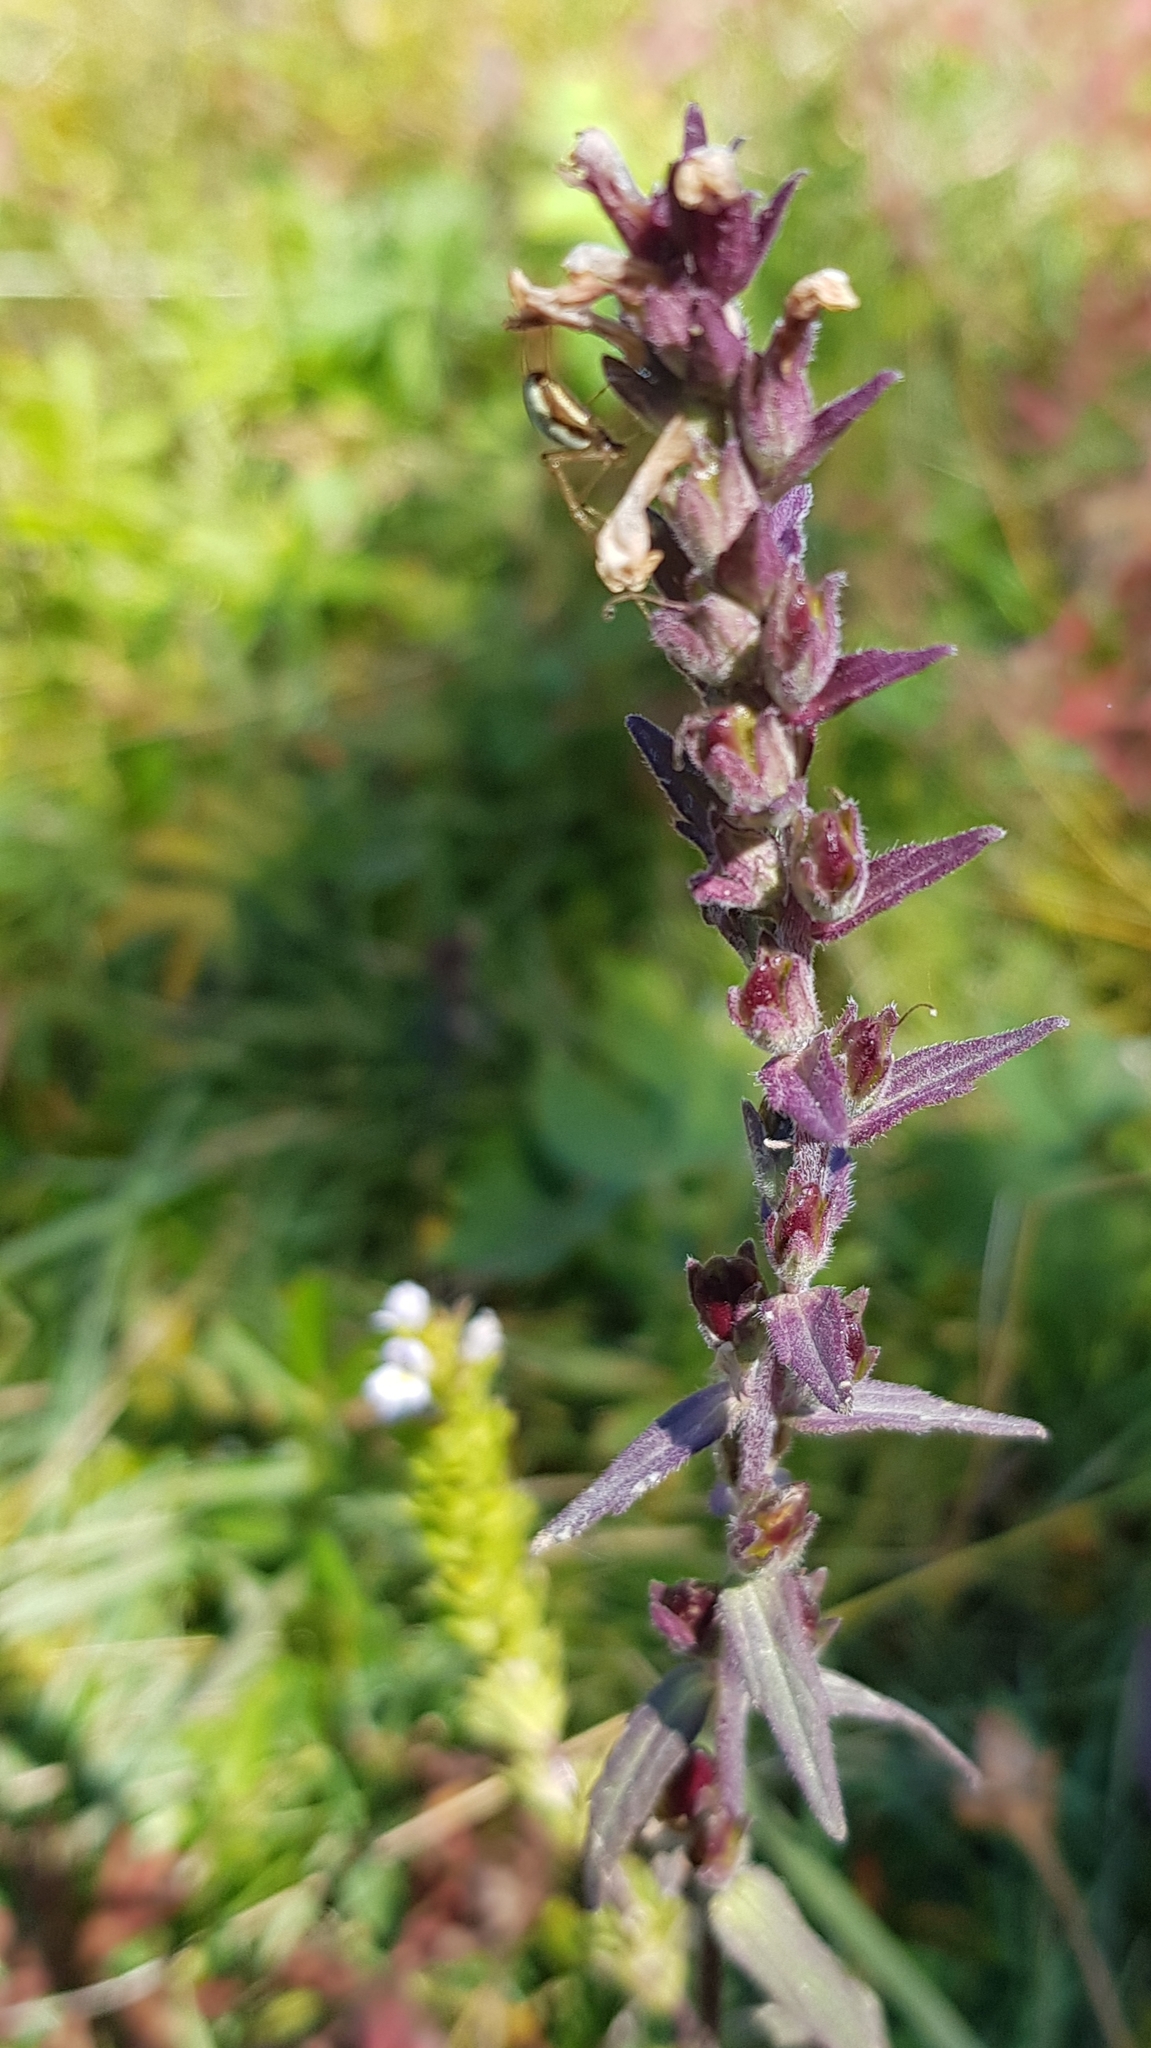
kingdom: Plantae
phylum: Tracheophyta
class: Magnoliopsida
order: Lamiales
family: Orobanchaceae
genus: Odontites
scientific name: Odontites vulgaris
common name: Broomrape
